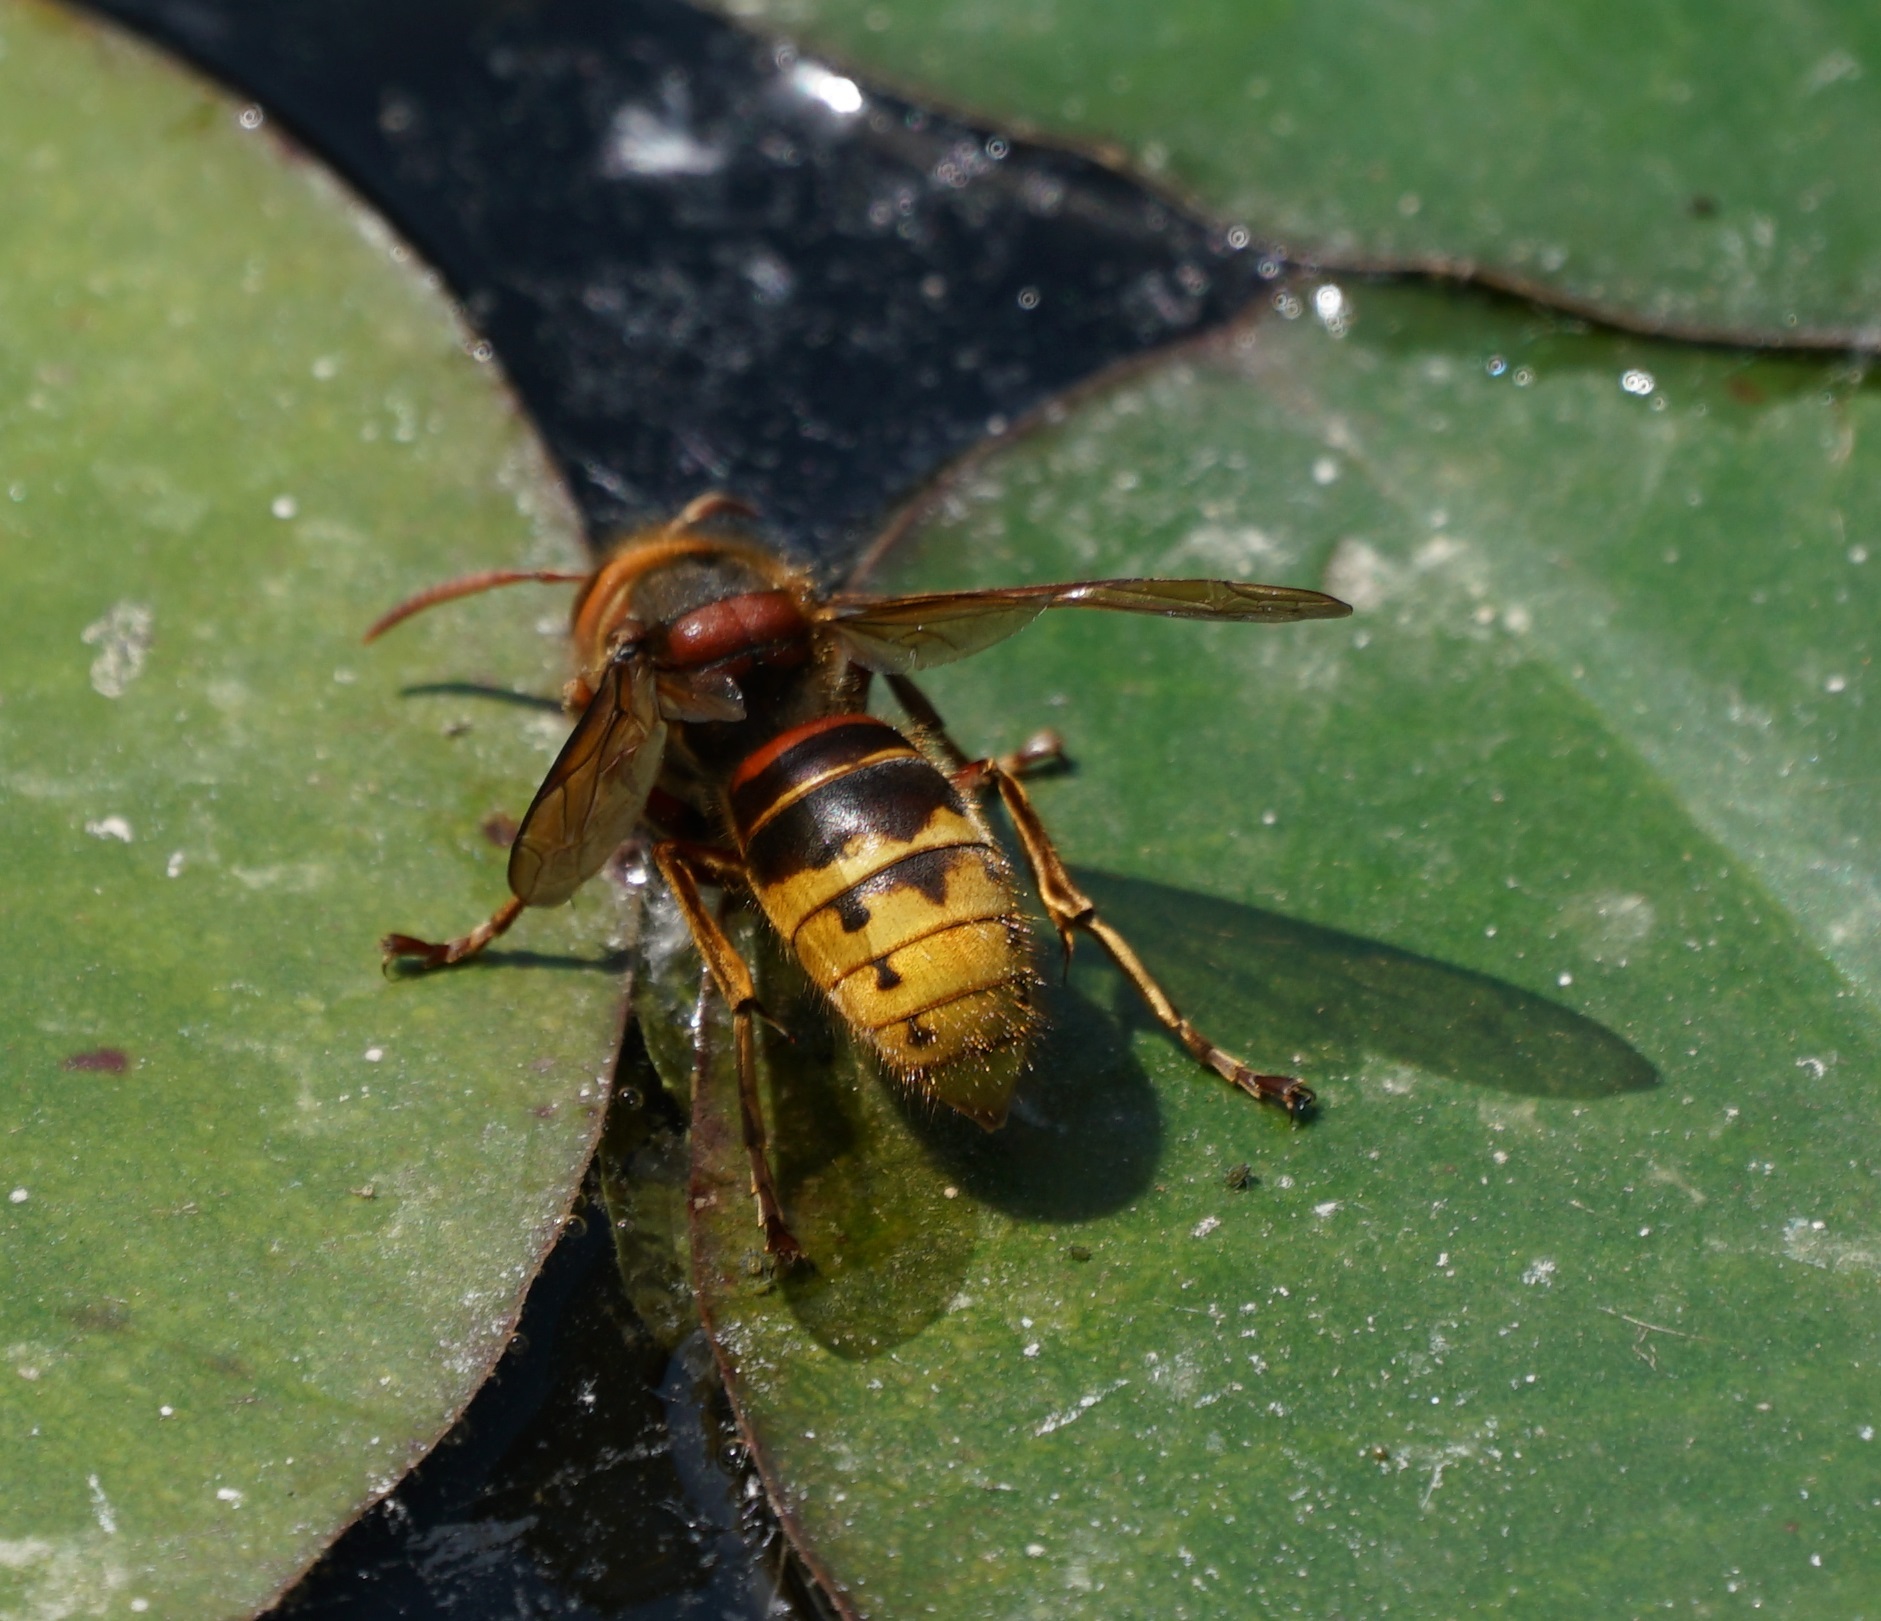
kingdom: Animalia
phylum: Arthropoda
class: Insecta
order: Hymenoptera
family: Vespidae
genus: Vespa
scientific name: Vespa crabro
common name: Hornet
